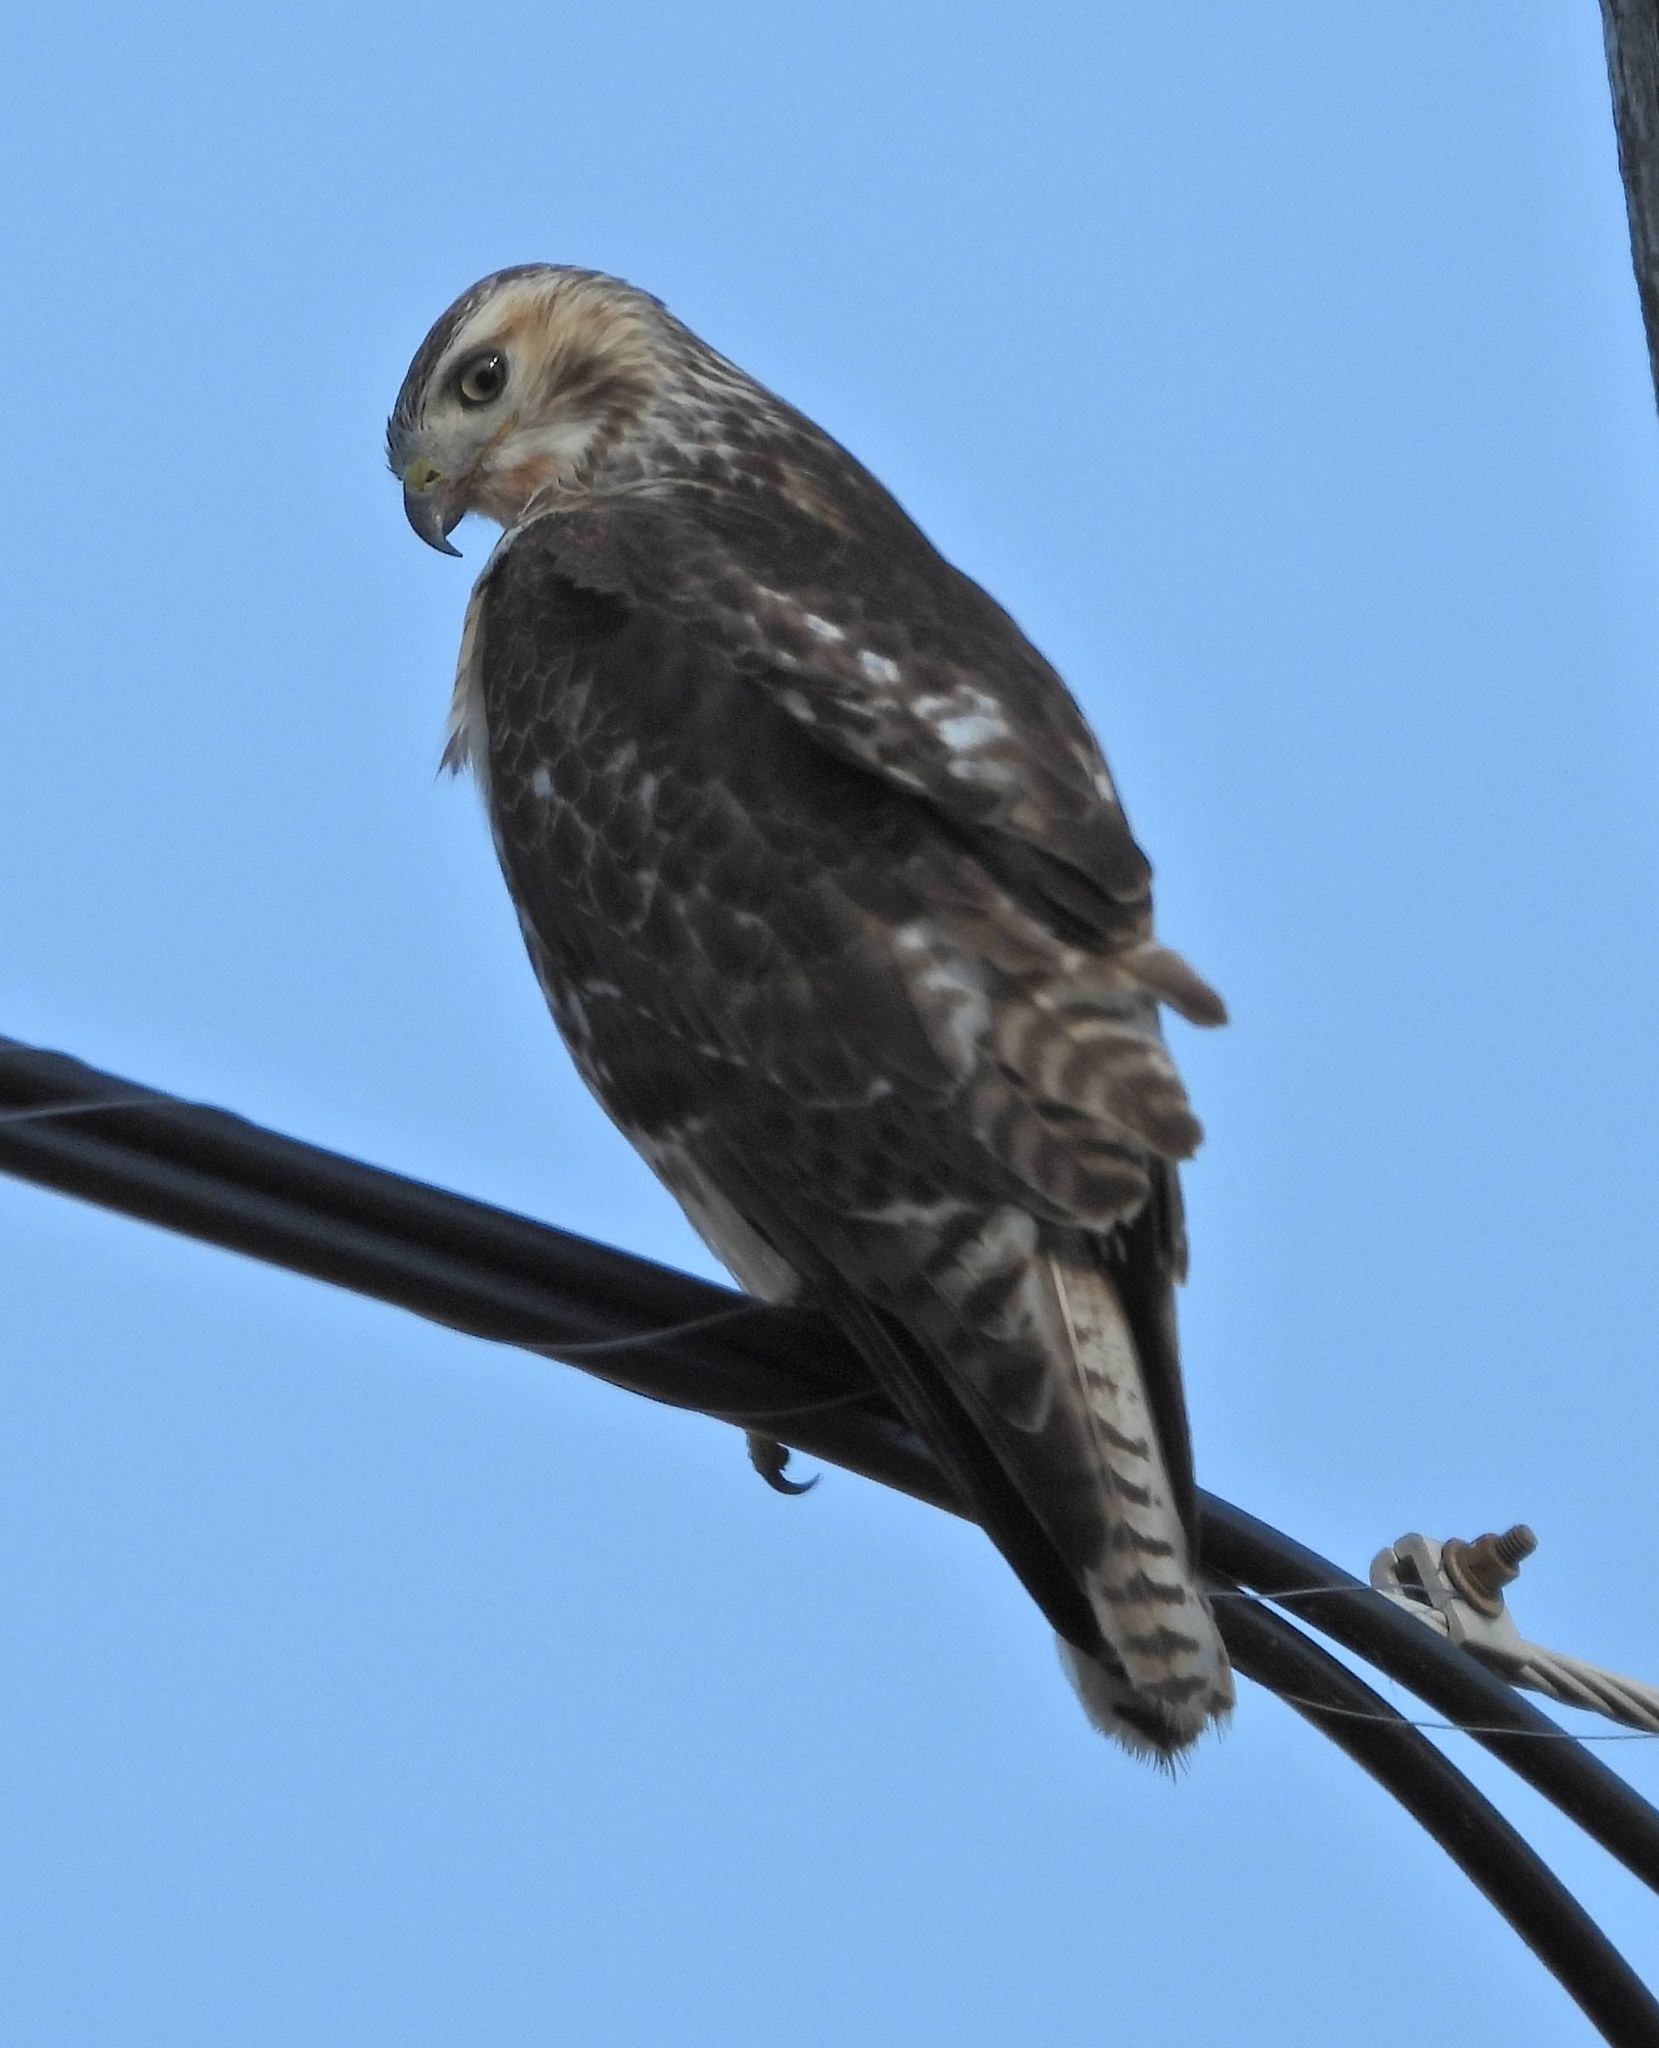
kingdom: Animalia
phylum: Chordata
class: Aves
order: Accipitriformes
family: Accipitridae
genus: Buteo
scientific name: Buteo jamaicensis
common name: Red-tailed hawk
